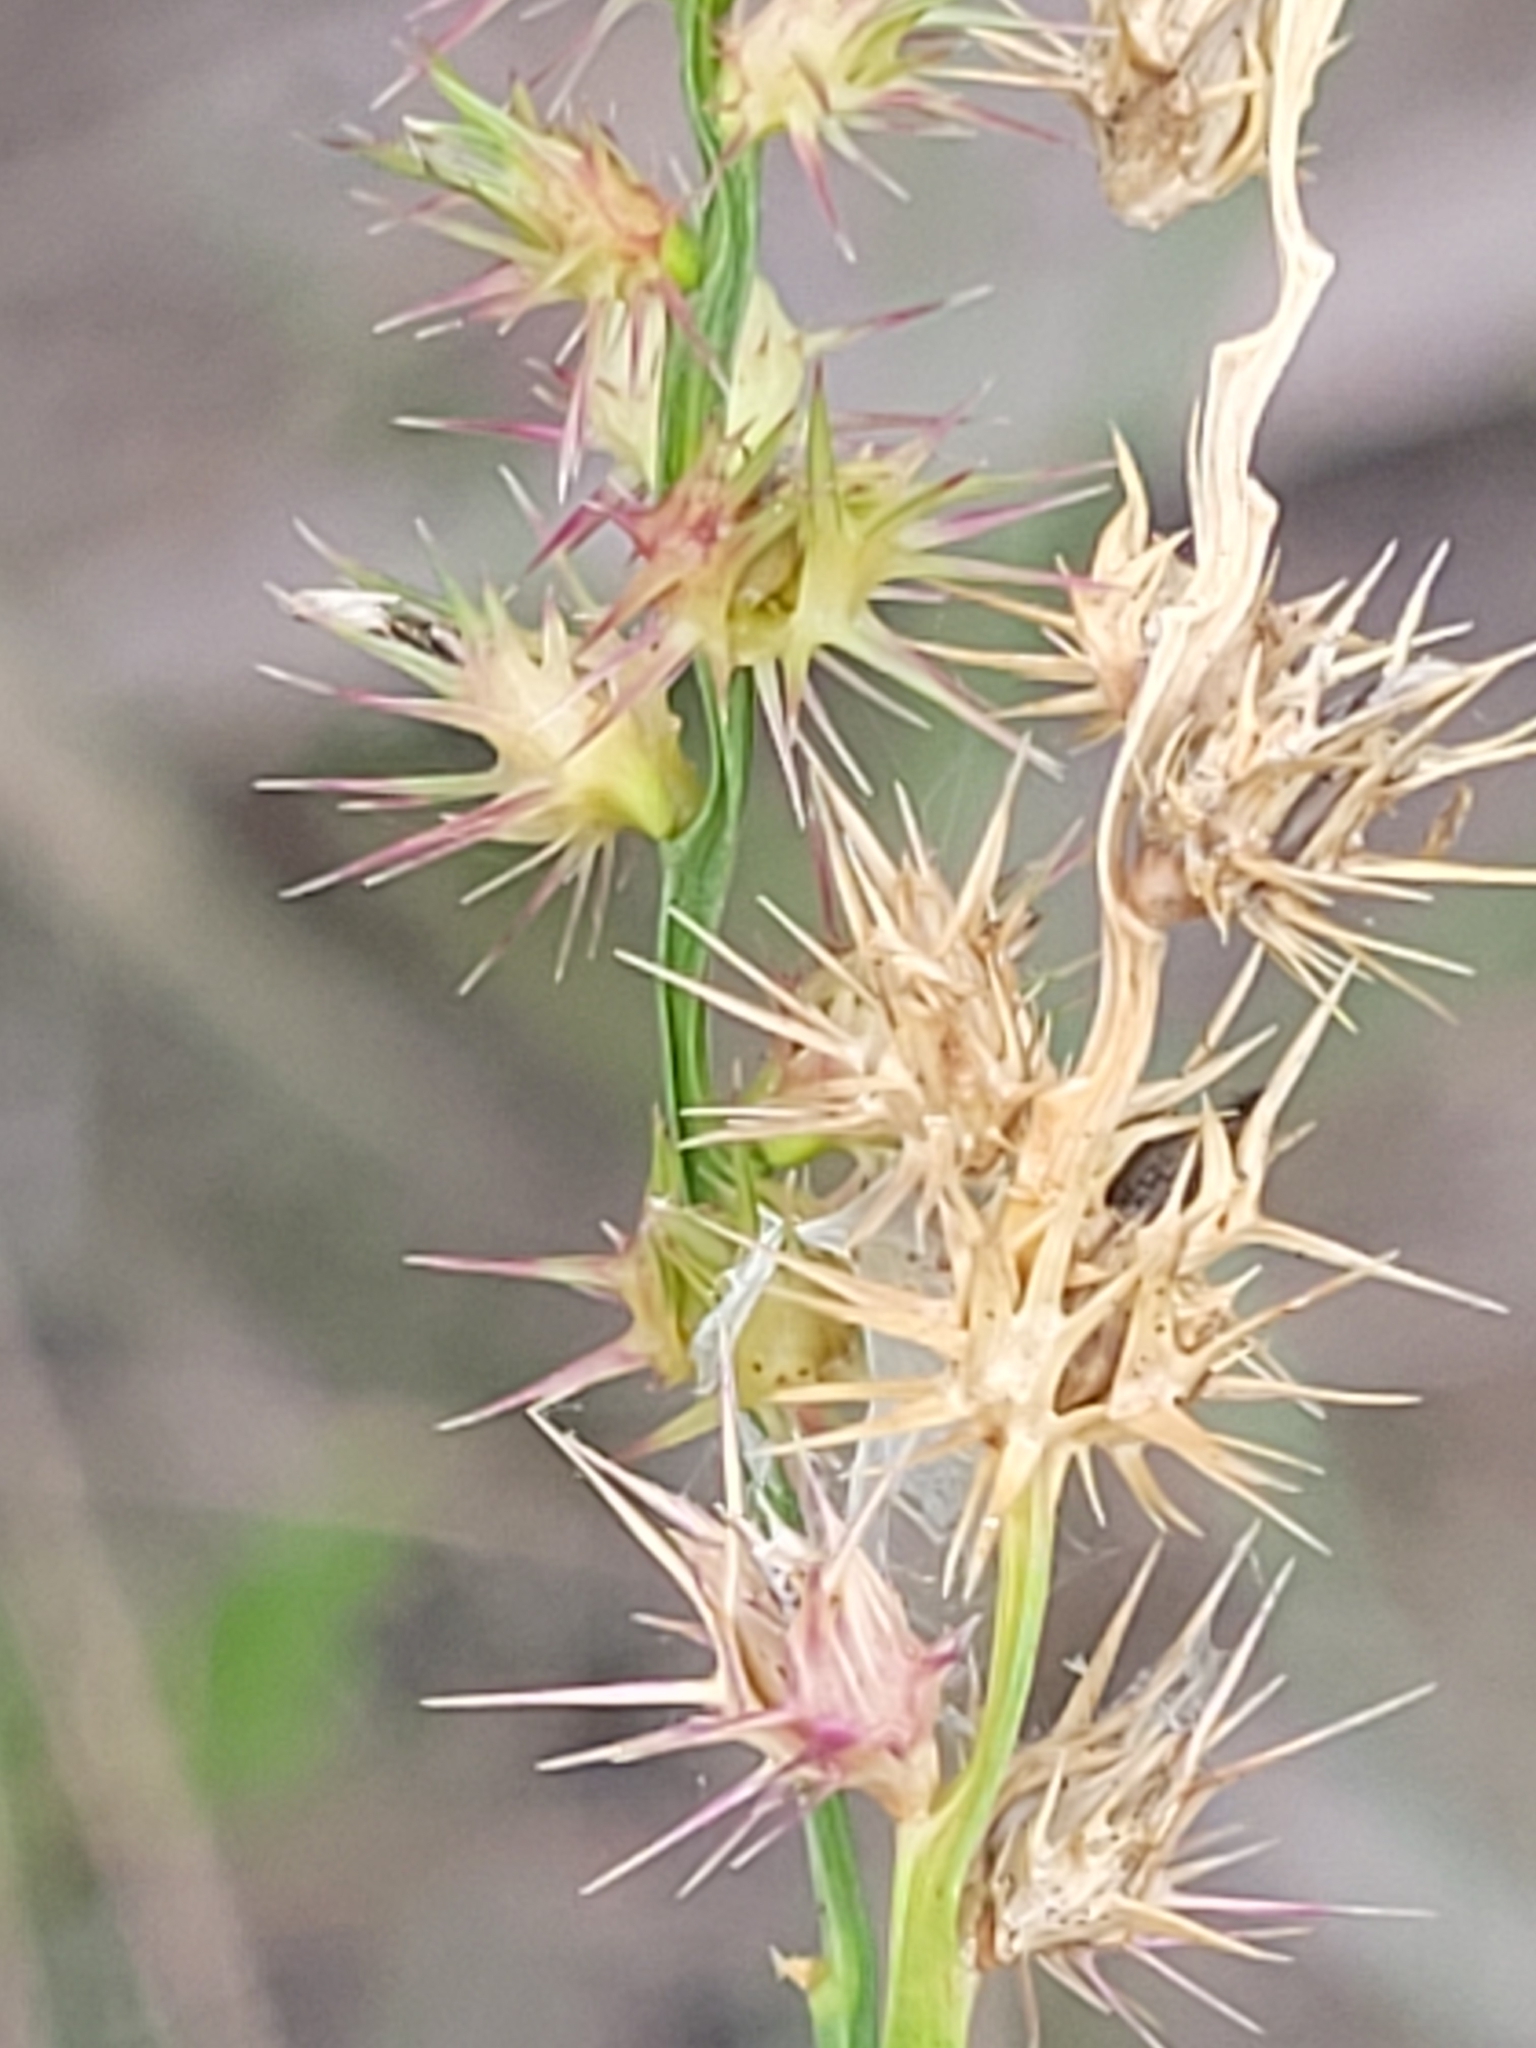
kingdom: Plantae
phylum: Tracheophyta
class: Liliopsida
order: Poales
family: Poaceae
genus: Cenchrus
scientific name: Cenchrus gracillimus
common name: Slender sandbur
